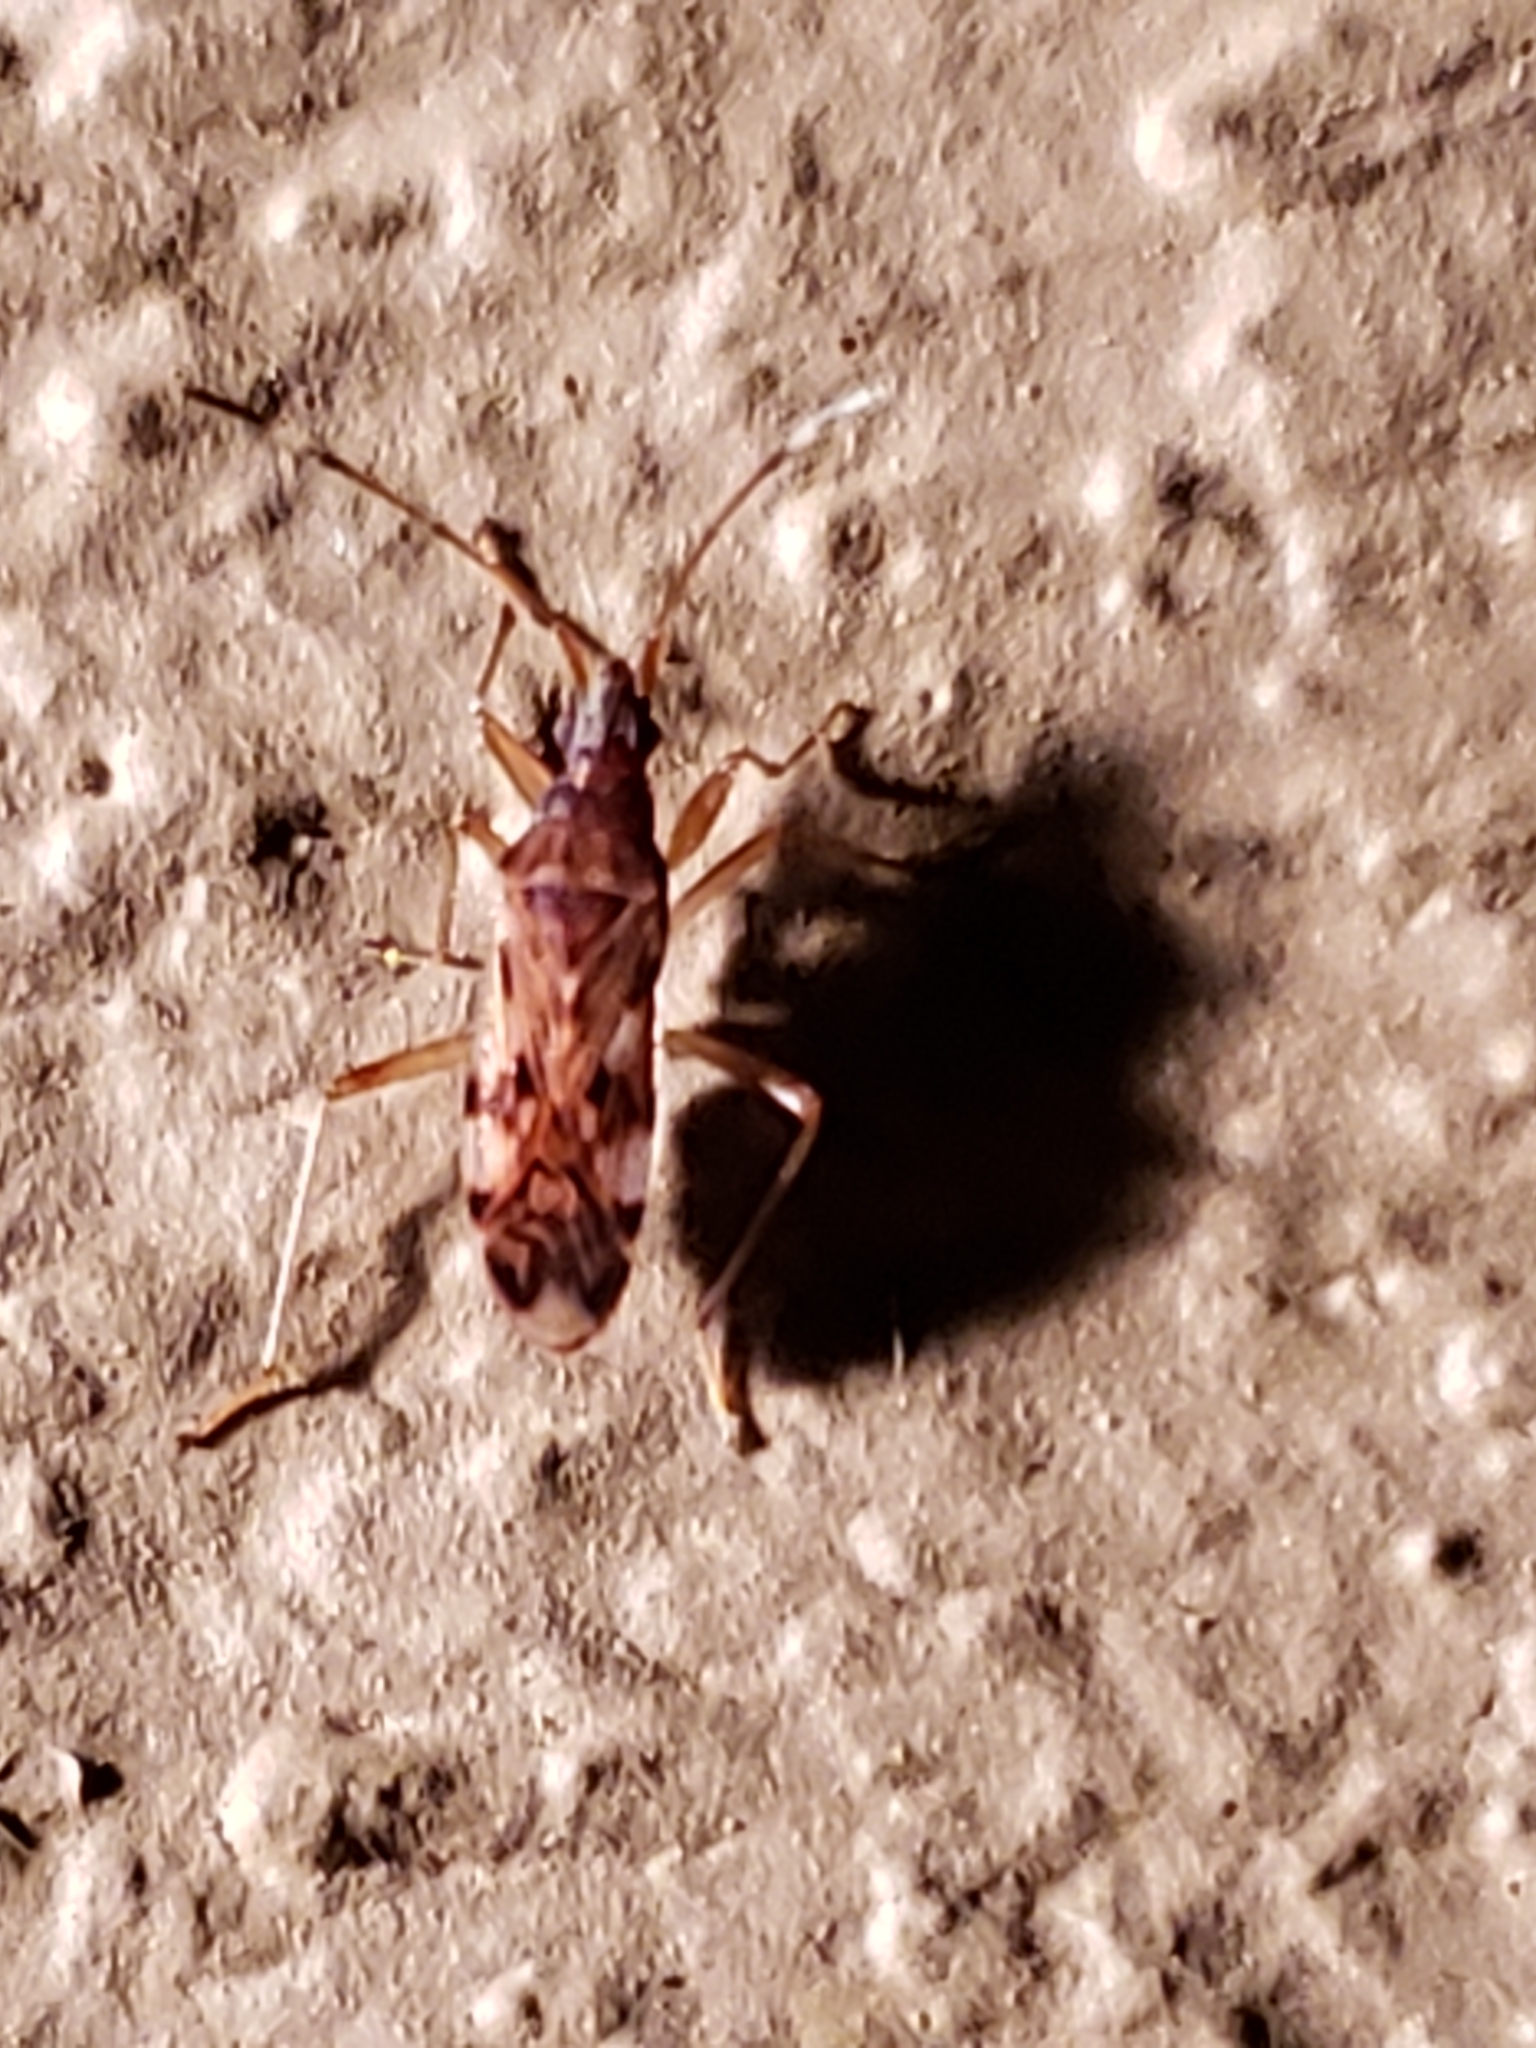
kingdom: Animalia
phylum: Arthropoda
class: Insecta
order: Hemiptera
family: Rhyparochromidae
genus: Ozophora
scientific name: Ozophora picturata
